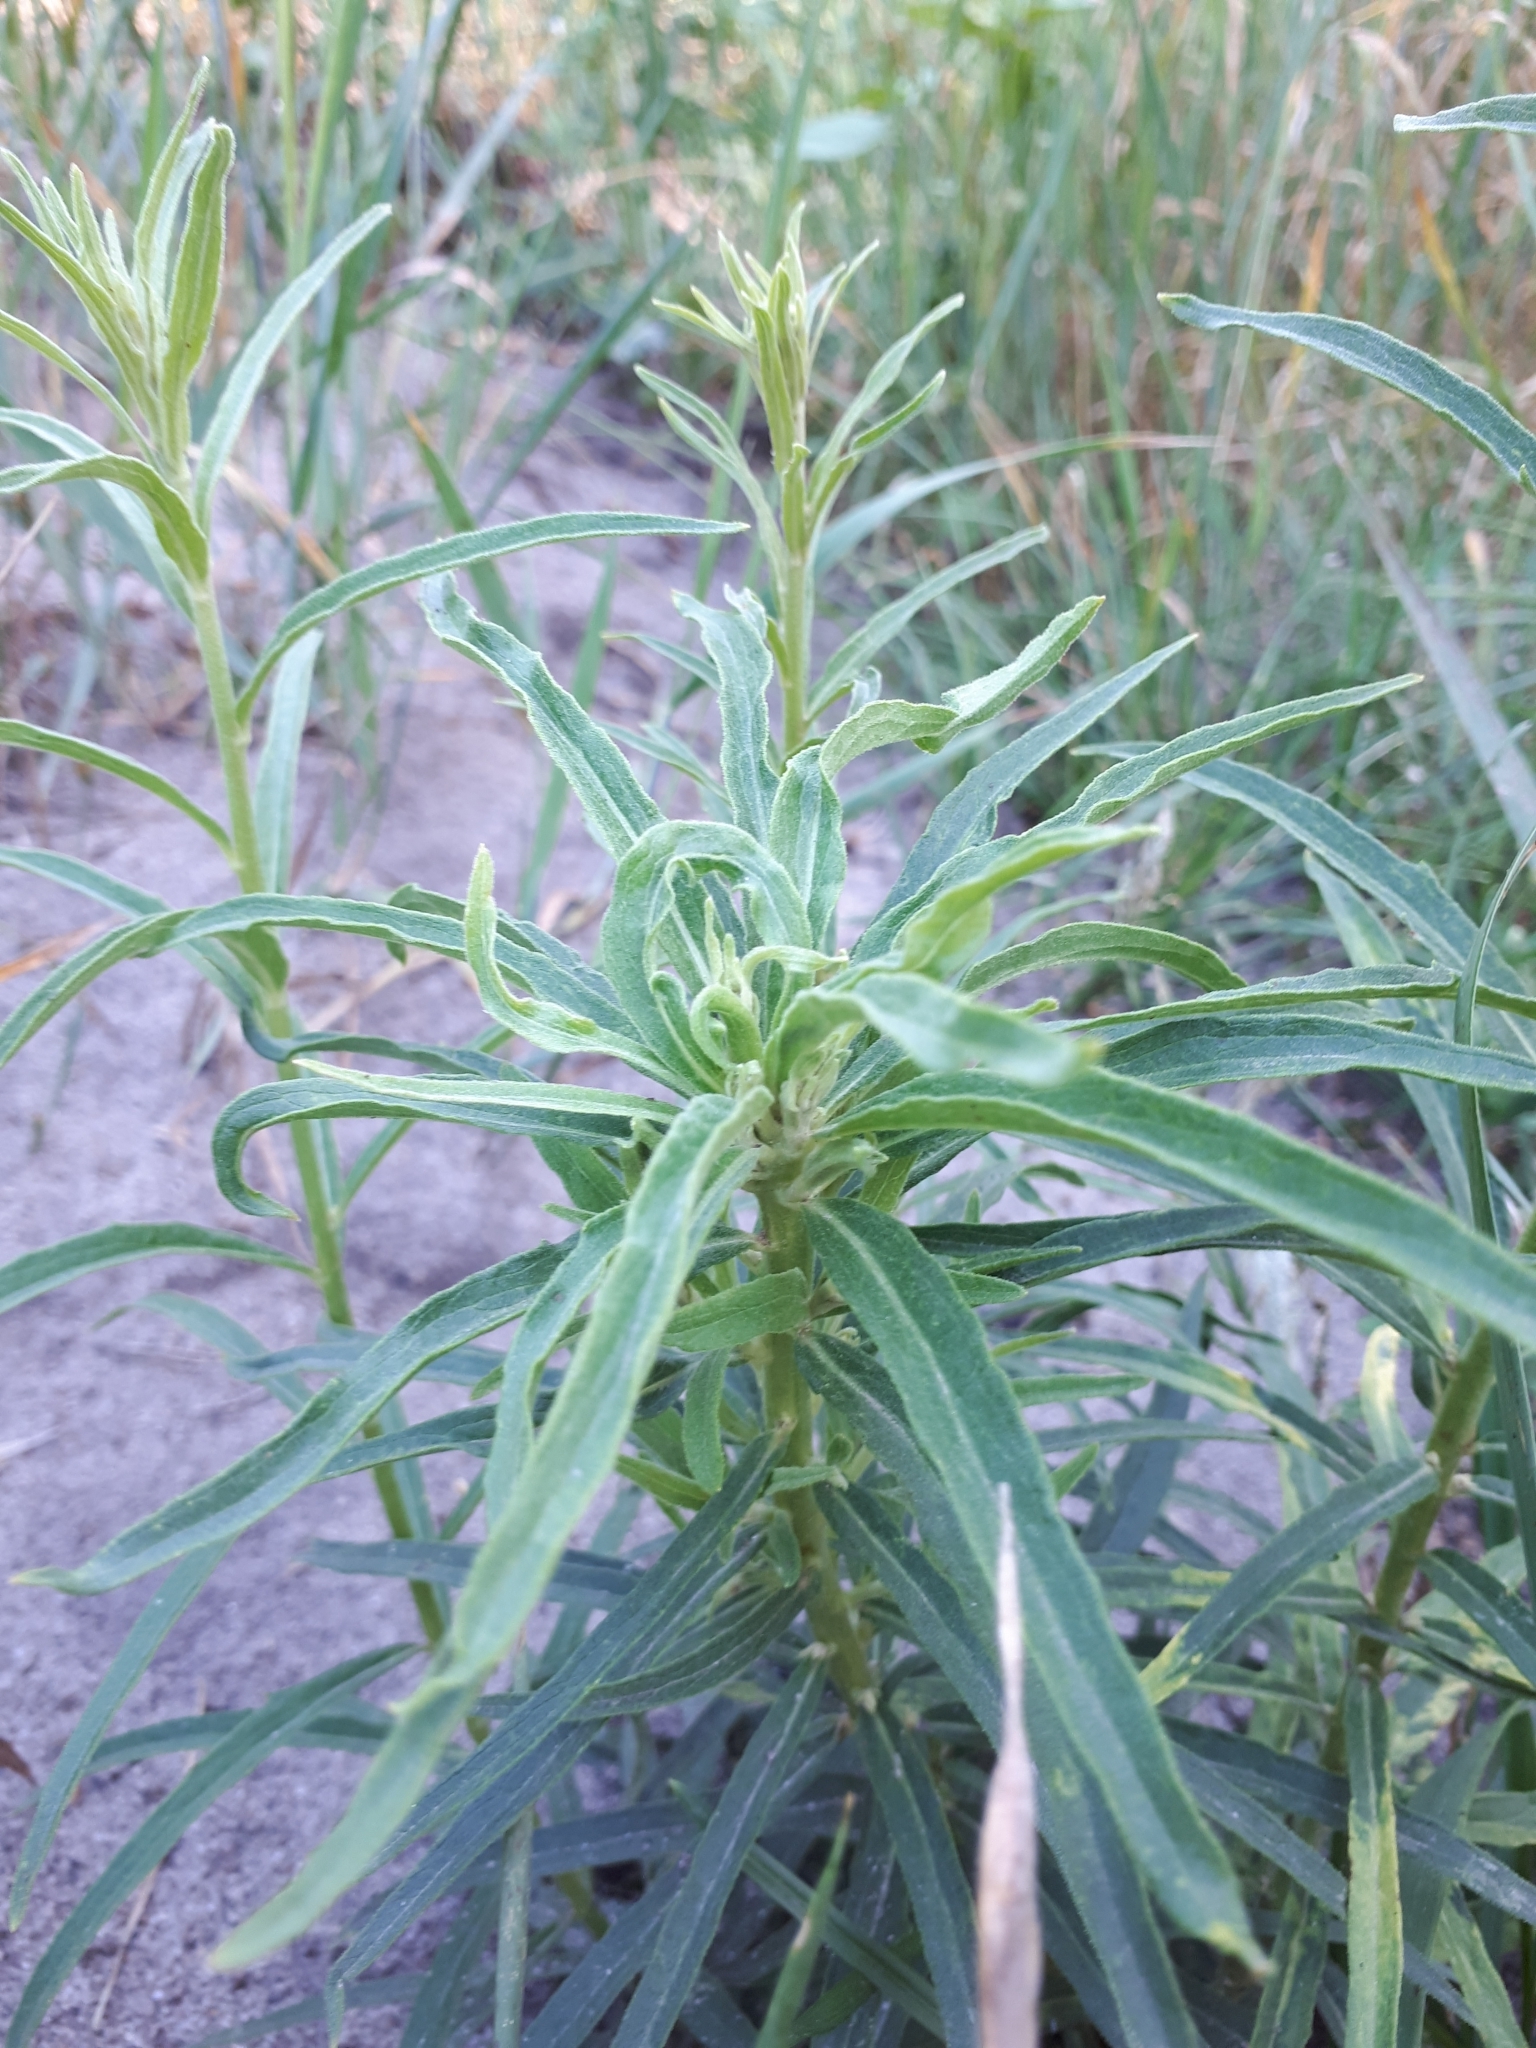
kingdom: Plantae
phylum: Tracheophyta
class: Magnoliopsida
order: Asterales
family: Asteraceae
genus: Hieracium
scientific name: Hieracium umbellatum
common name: Northern hawkweed
